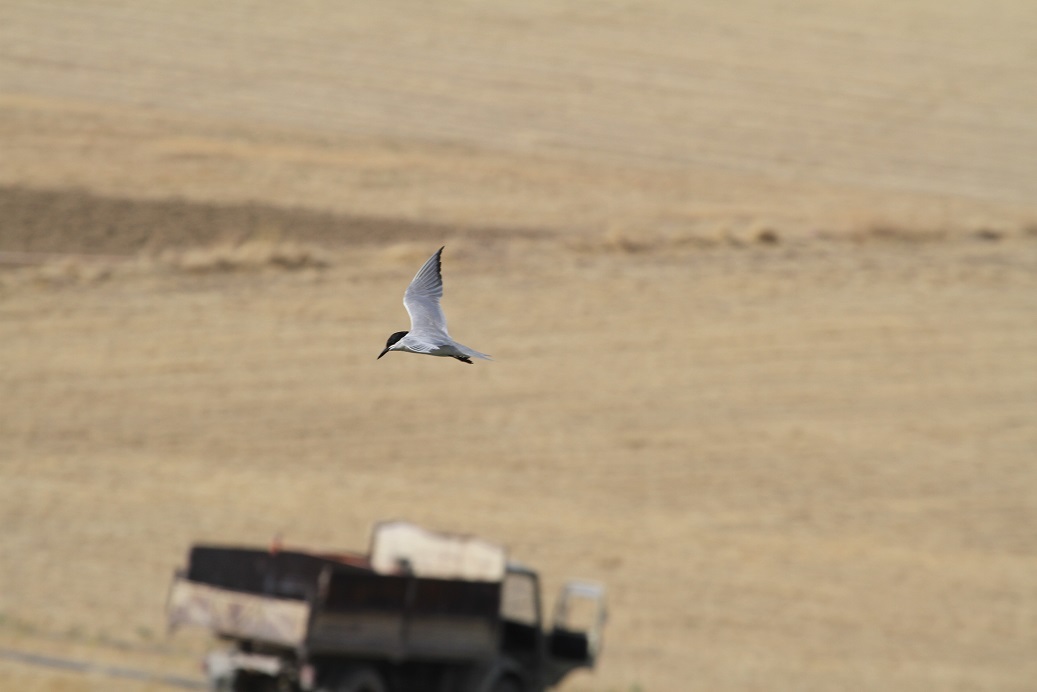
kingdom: Animalia
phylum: Chordata
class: Aves
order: Charadriiformes
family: Laridae
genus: Gelochelidon
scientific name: Gelochelidon nilotica
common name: Gull-billed tern
